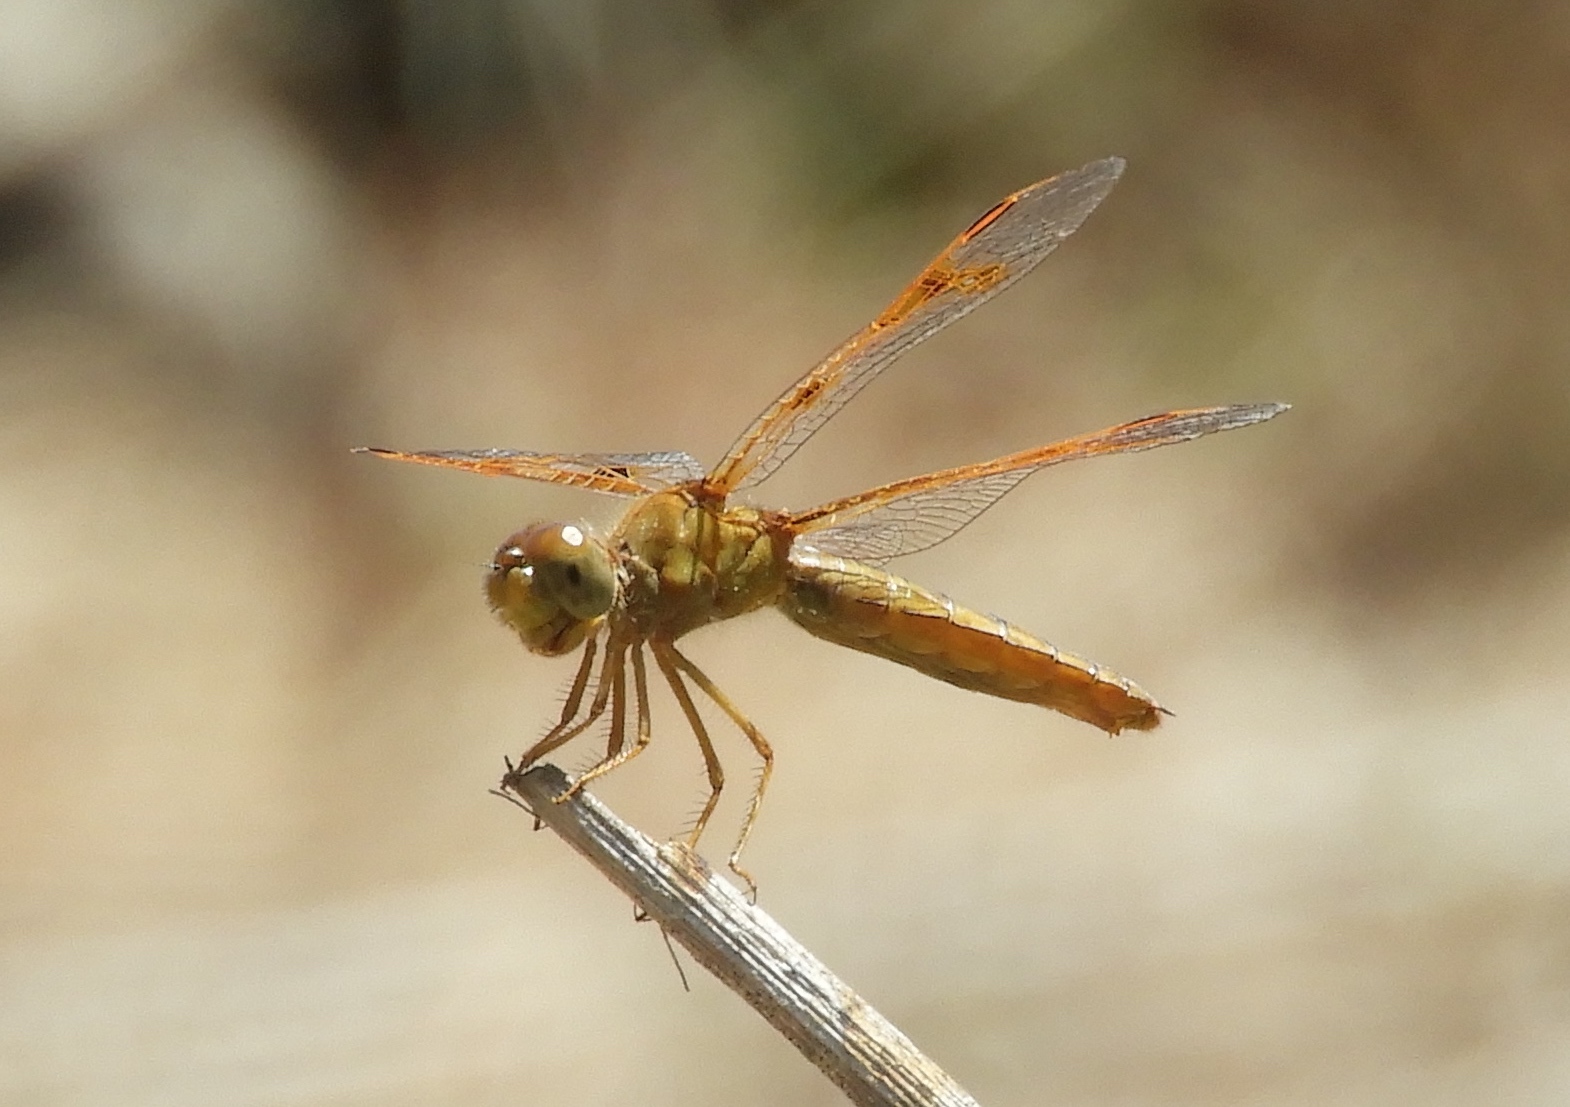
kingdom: Animalia
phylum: Arthropoda
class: Insecta
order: Odonata
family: Libellulidae
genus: Perithemis
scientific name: Perithemis intensa
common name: Mexican amberwing
